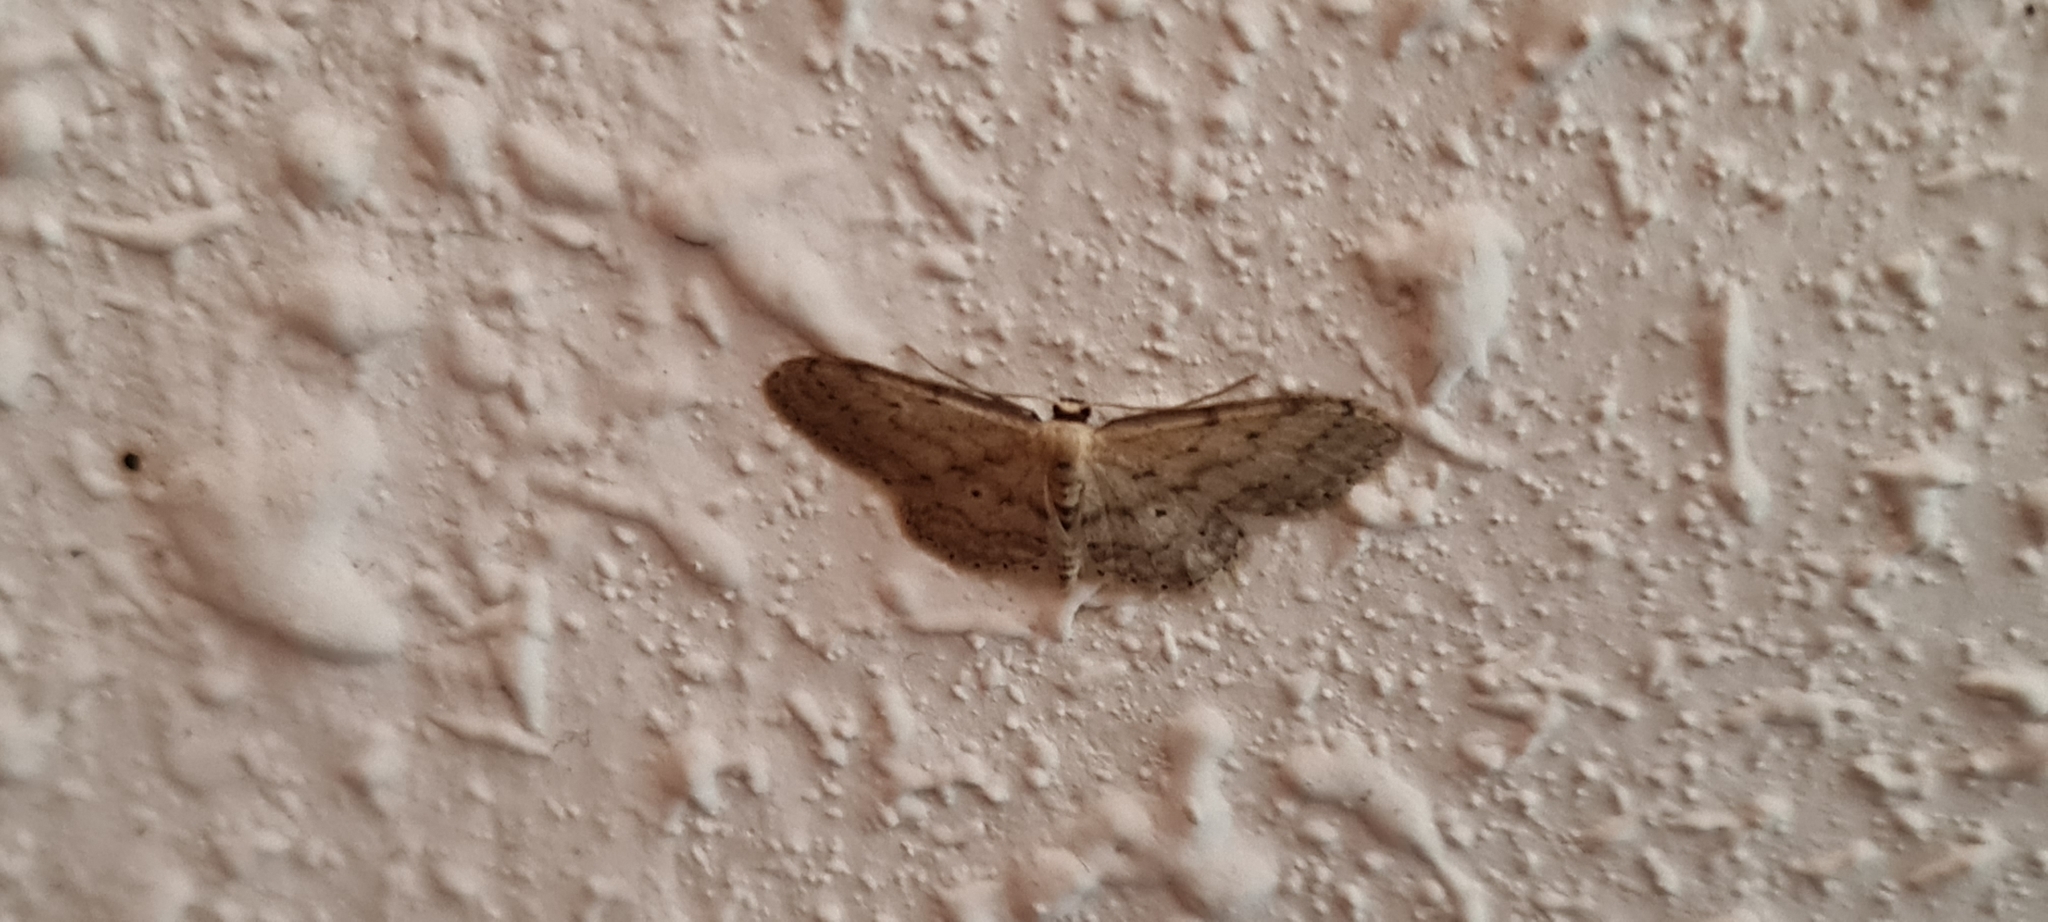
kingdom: Animalia
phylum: Arthropoda
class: Insecta
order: Lepidoptera
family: Geometridae
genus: Idaea
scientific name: Idaea seriata
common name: Small dusty wave
